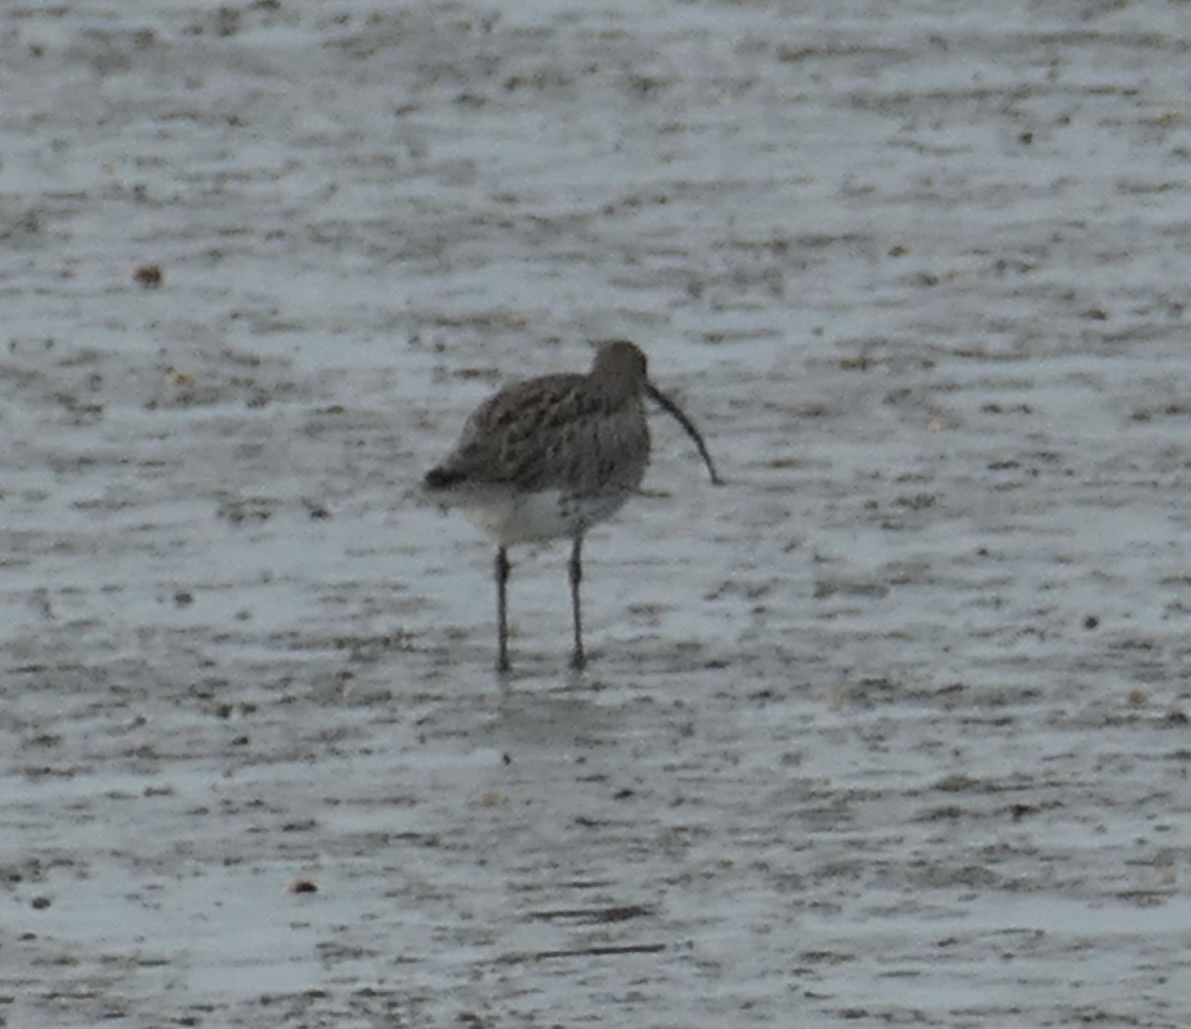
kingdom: Animalia
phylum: Chordata
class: Aves
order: Charadriiformes
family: Scolopacidae
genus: Numenius
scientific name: Numenius arquata
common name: Eurasian curlew
